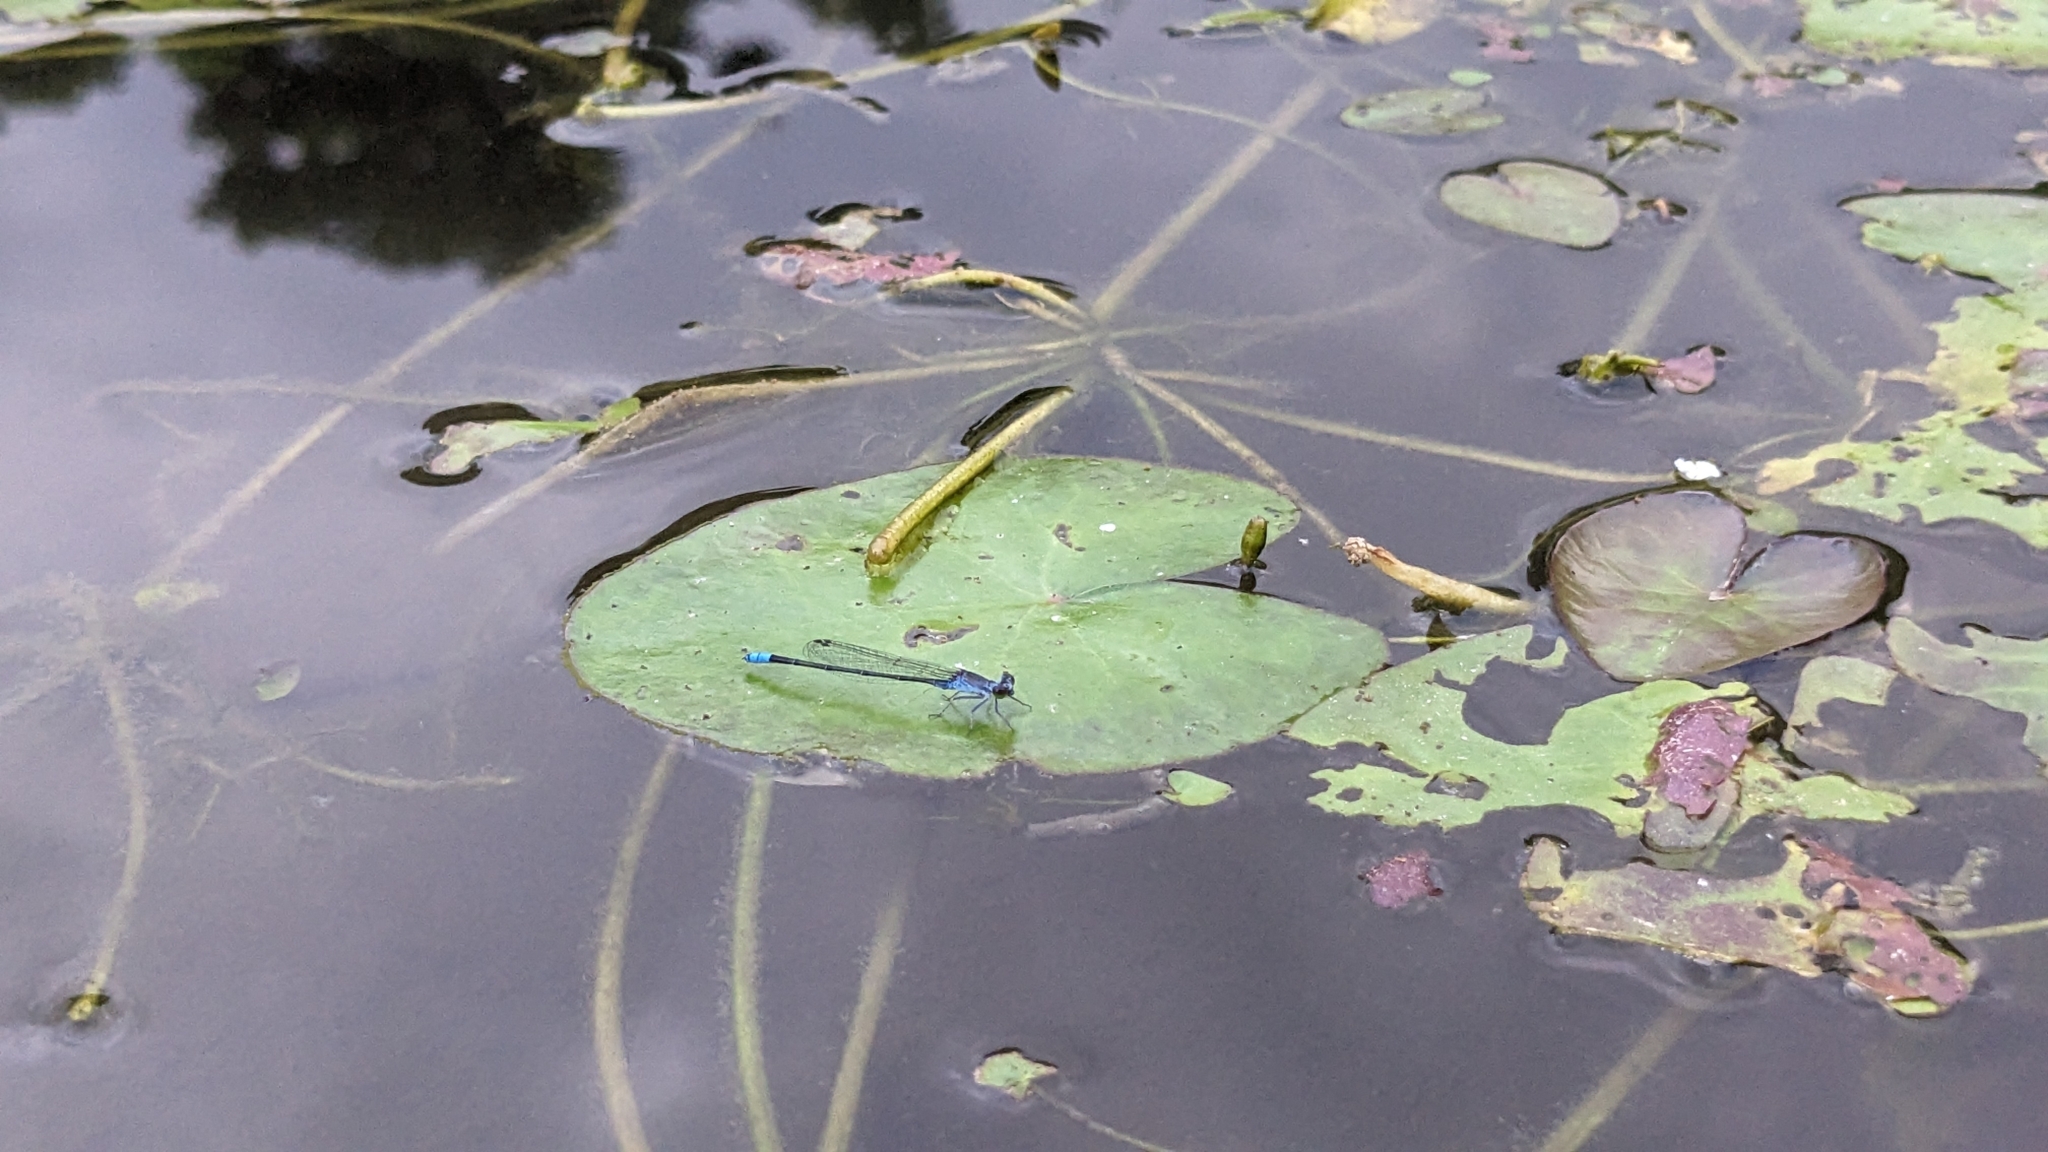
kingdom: Animalia
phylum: Arthropoda
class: Insecta
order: Odonata
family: Coenagrionidae
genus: Paracercion
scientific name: Paracercion calamorum
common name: Dusky lilysquatter
